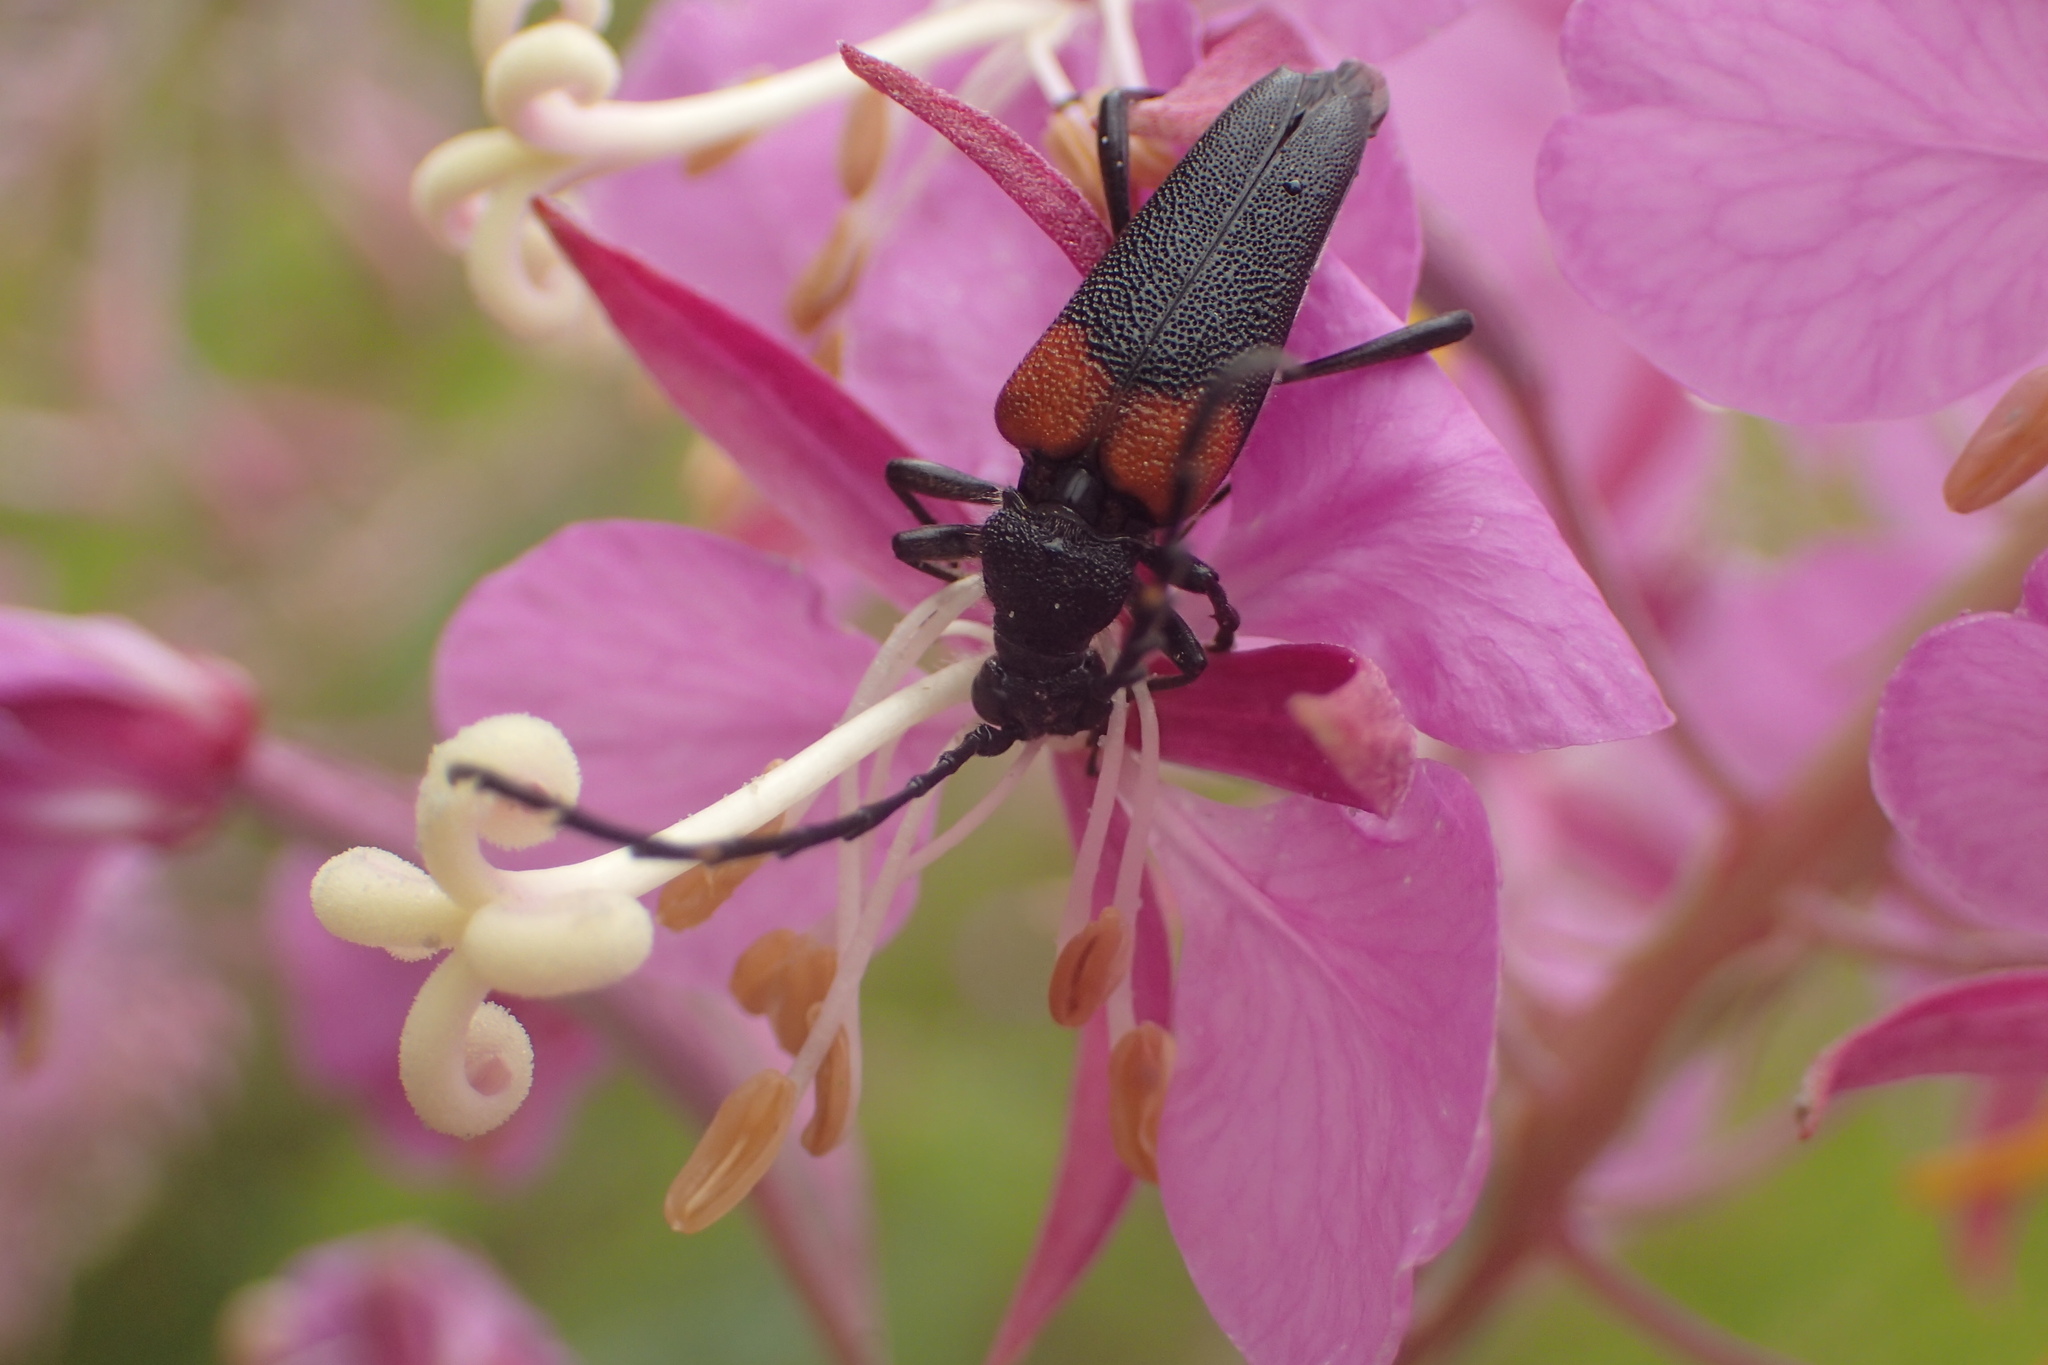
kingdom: Animalia
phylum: Arthropoda
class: Insecta
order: Coleoptera
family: Cerambycidae
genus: Stictoleptura
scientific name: Stictoleptura canadensis
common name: Red-shouldered pine borer
